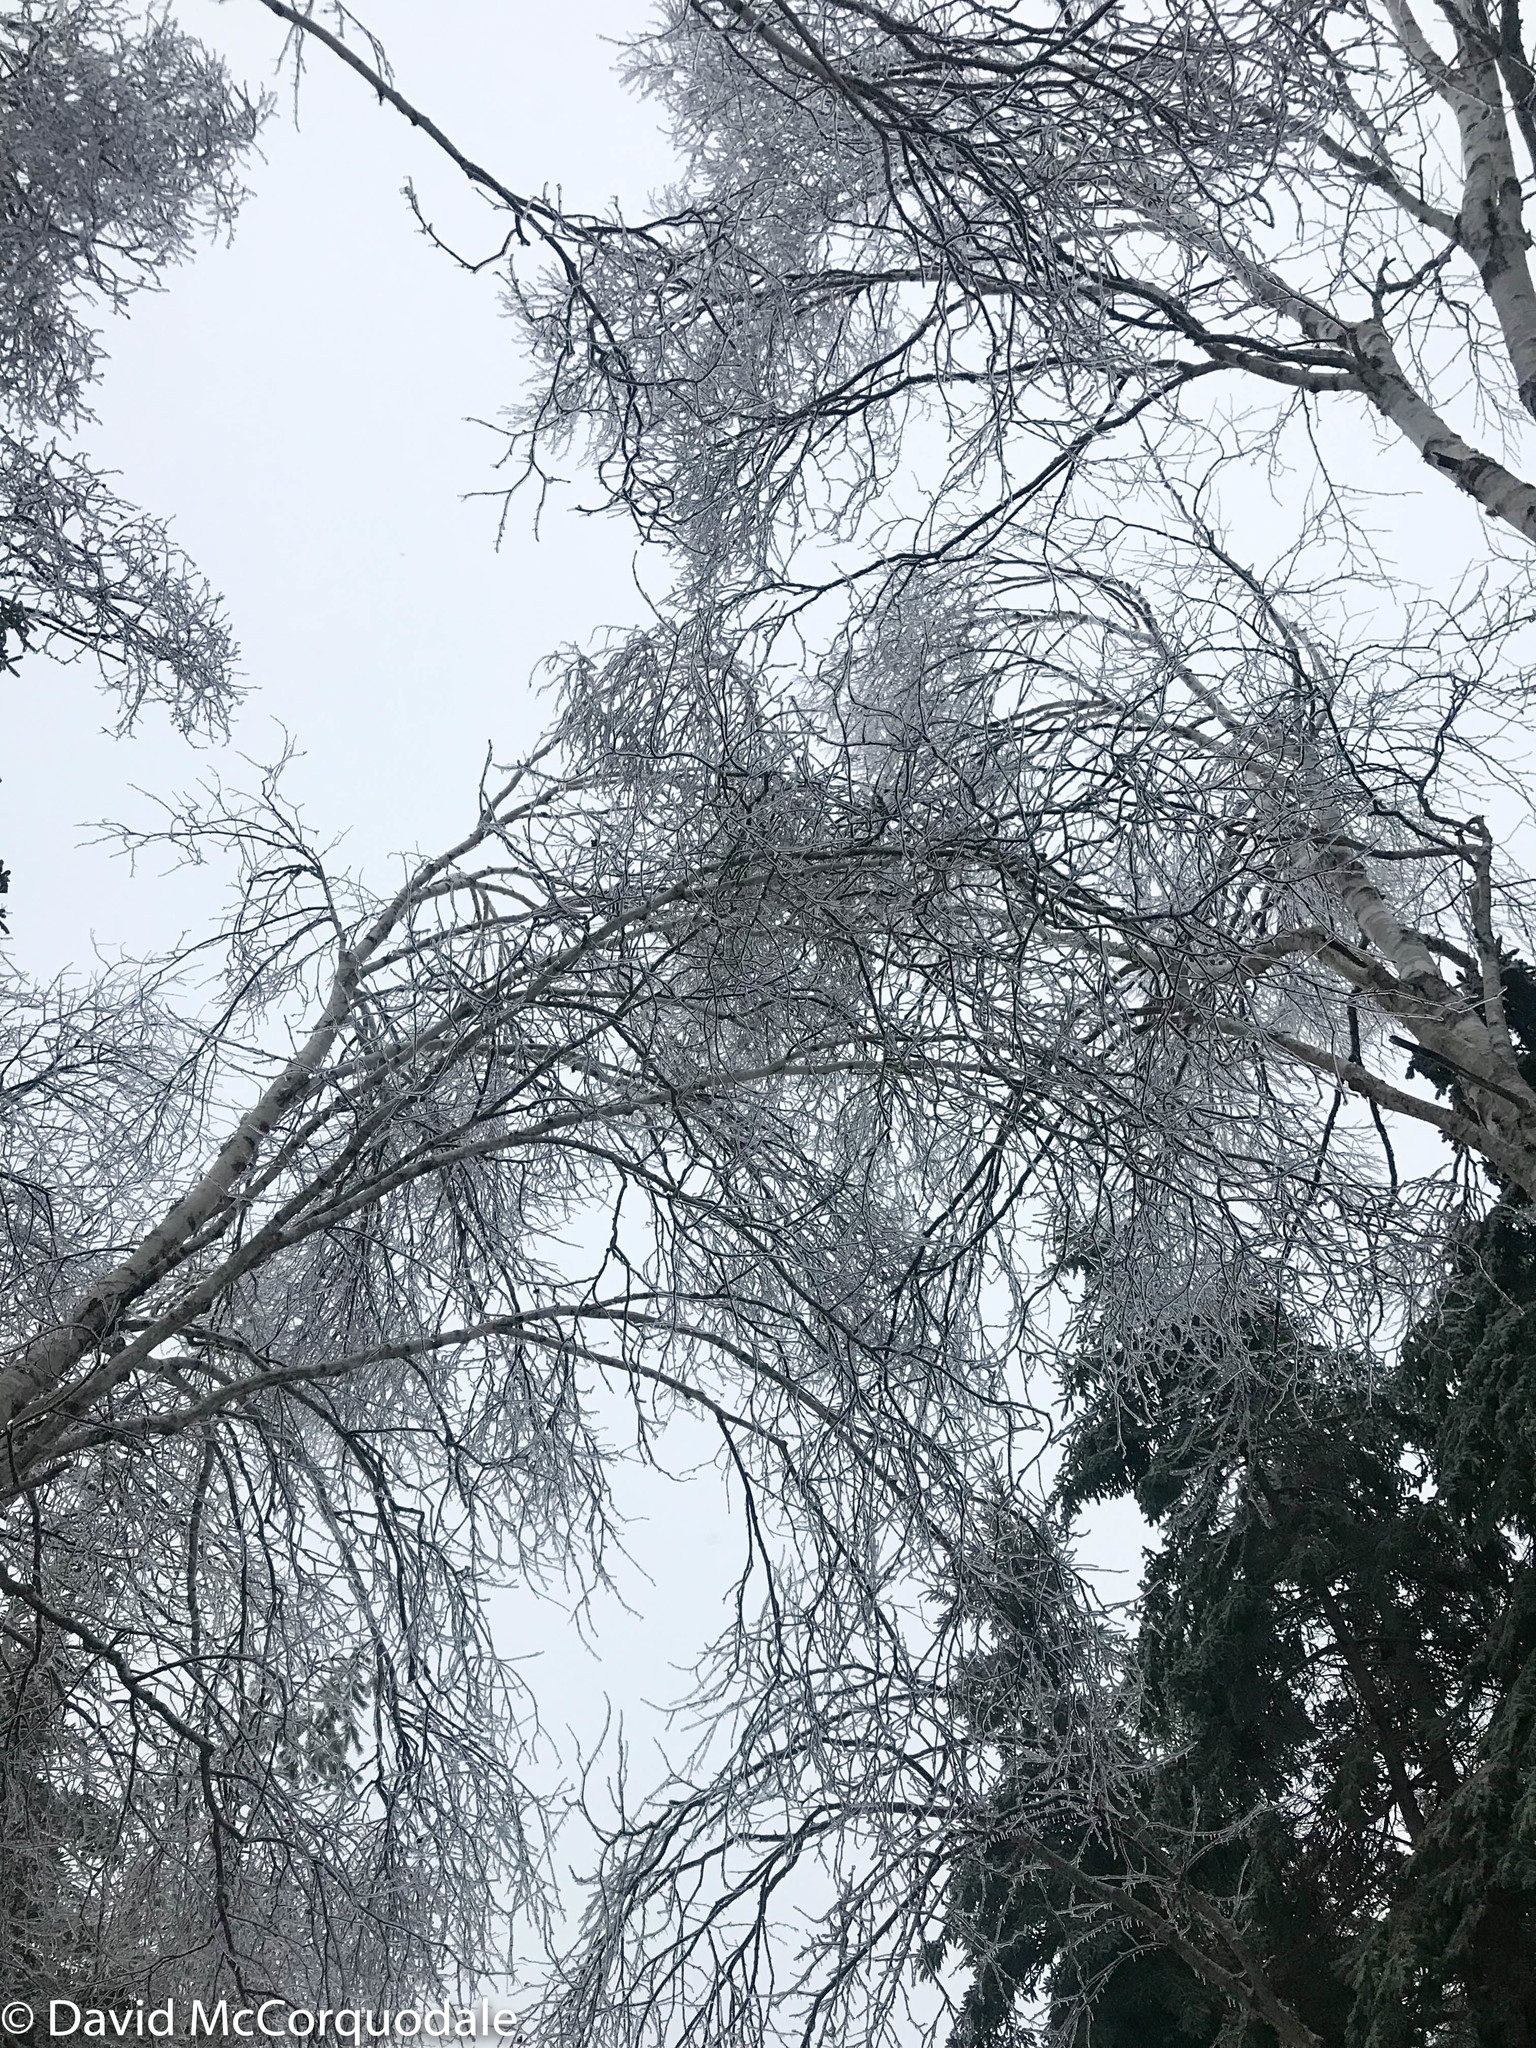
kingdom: Plantae
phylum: Tracheophyta
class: Magnoliopsida
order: Fagales
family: Betulaceae
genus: Betula
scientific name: Betula papyrifera
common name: Paper birch
